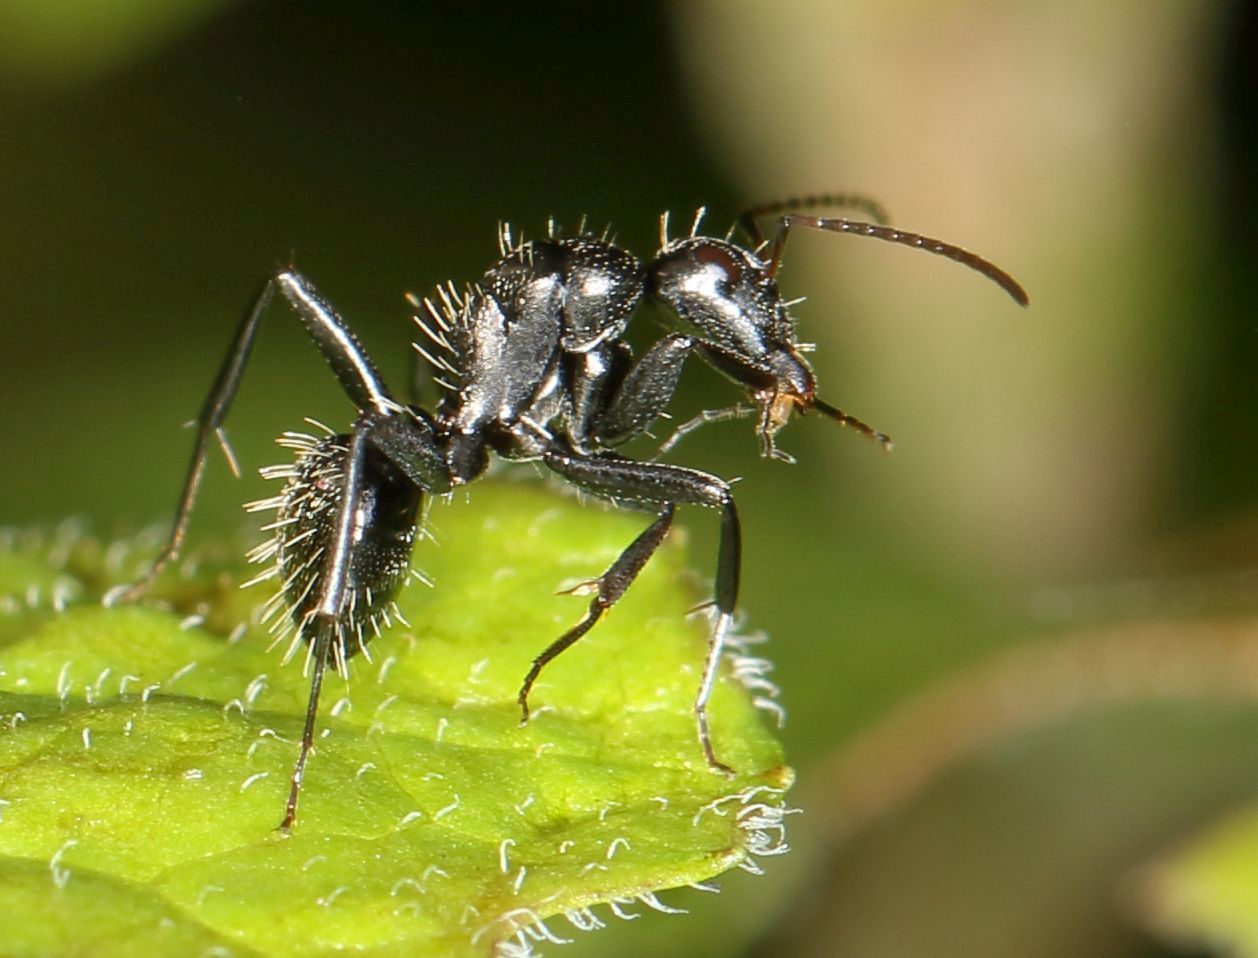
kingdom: Animalia
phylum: Arthropoda
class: Insecta
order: Hymenoptera
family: Formicidae
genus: Camponotus
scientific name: Camponotus niveosetosus
